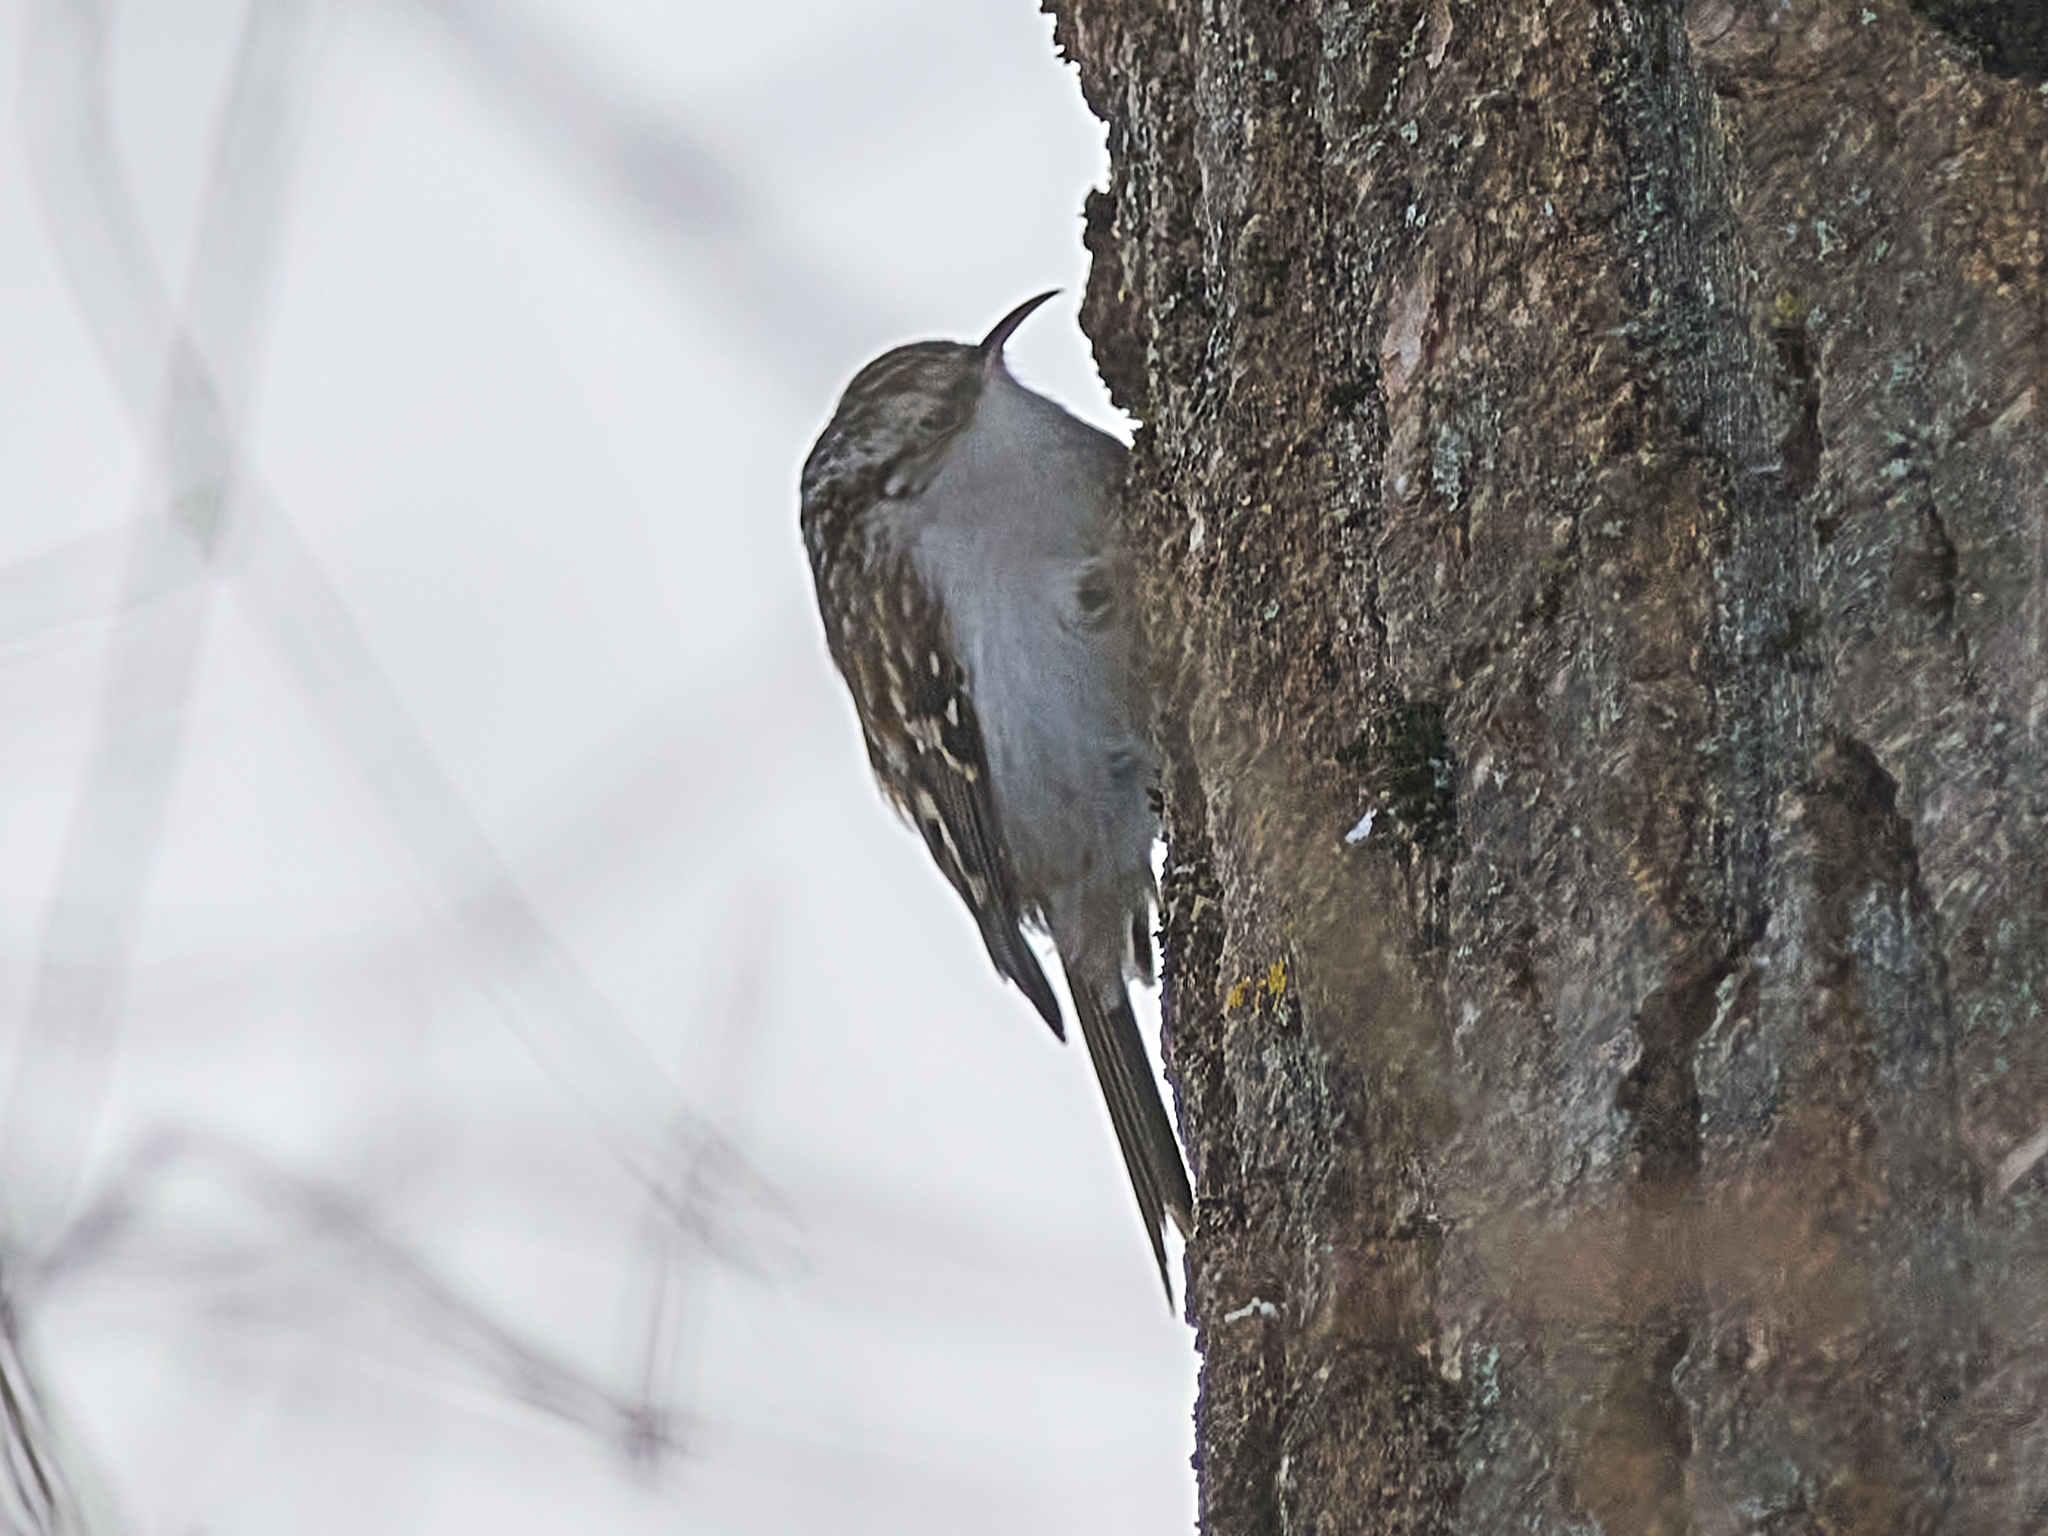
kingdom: Animalia
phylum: Chordata
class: Aves
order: Passeriformes
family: Certhiidae
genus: Certhia
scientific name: Certhia familiaris
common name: Eurasian treecreeper
